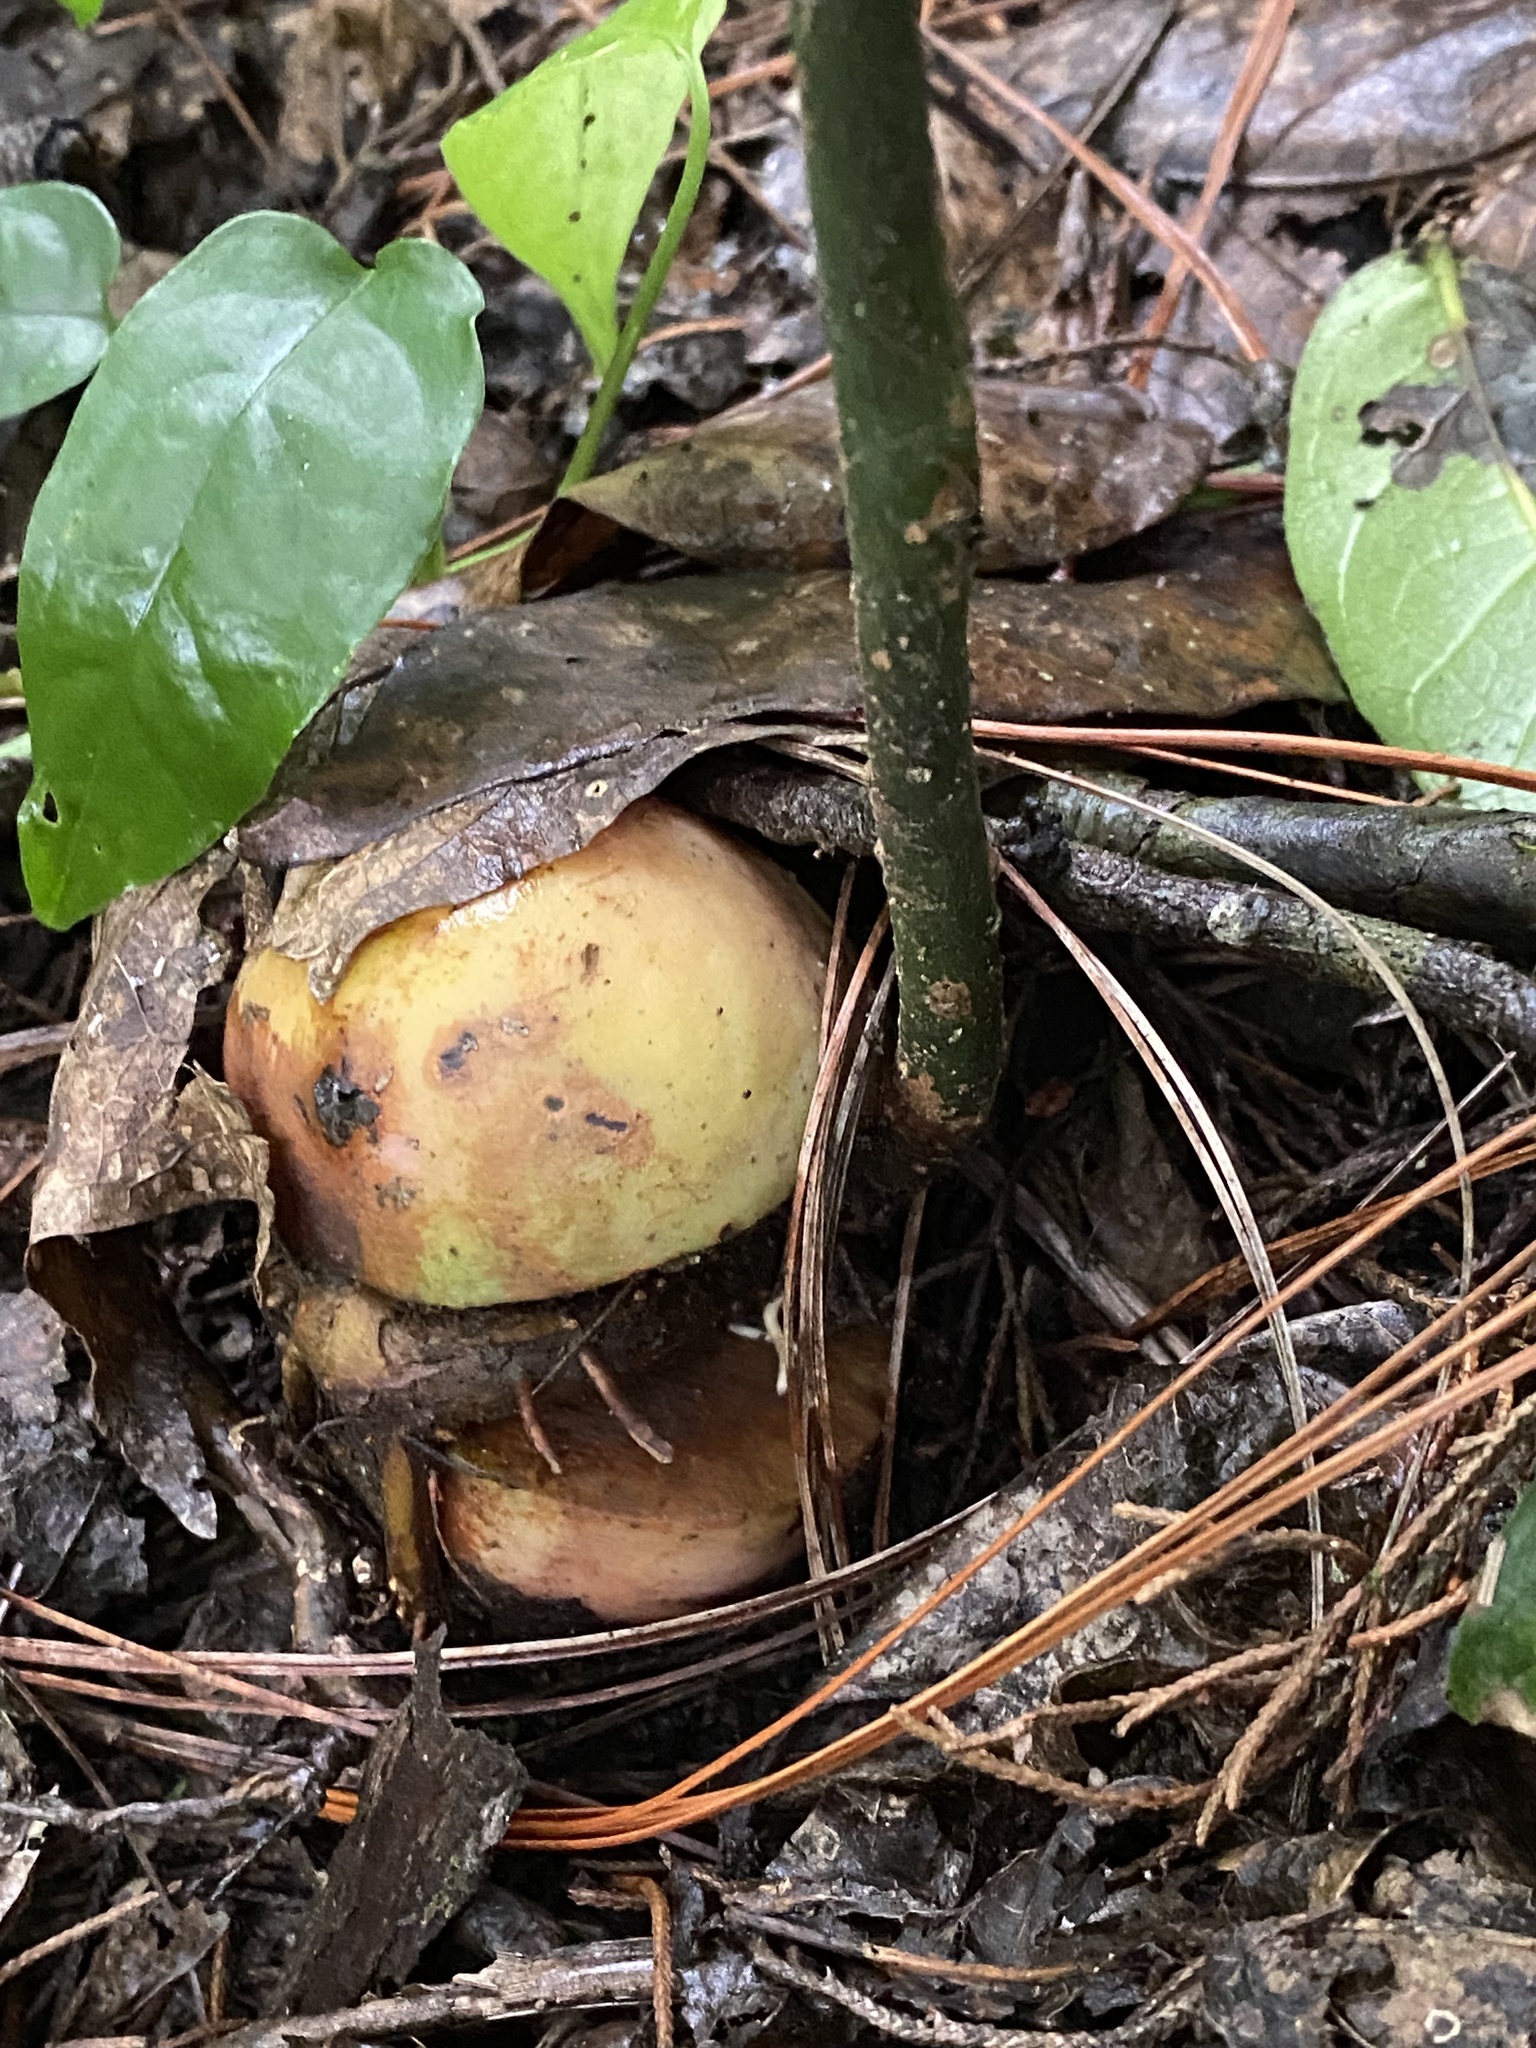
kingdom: Plantae
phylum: Tracheophyta
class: Magnoliopsida
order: Laurales
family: Lauraceae
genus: Persea
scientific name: Persea americana
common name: Avocado
